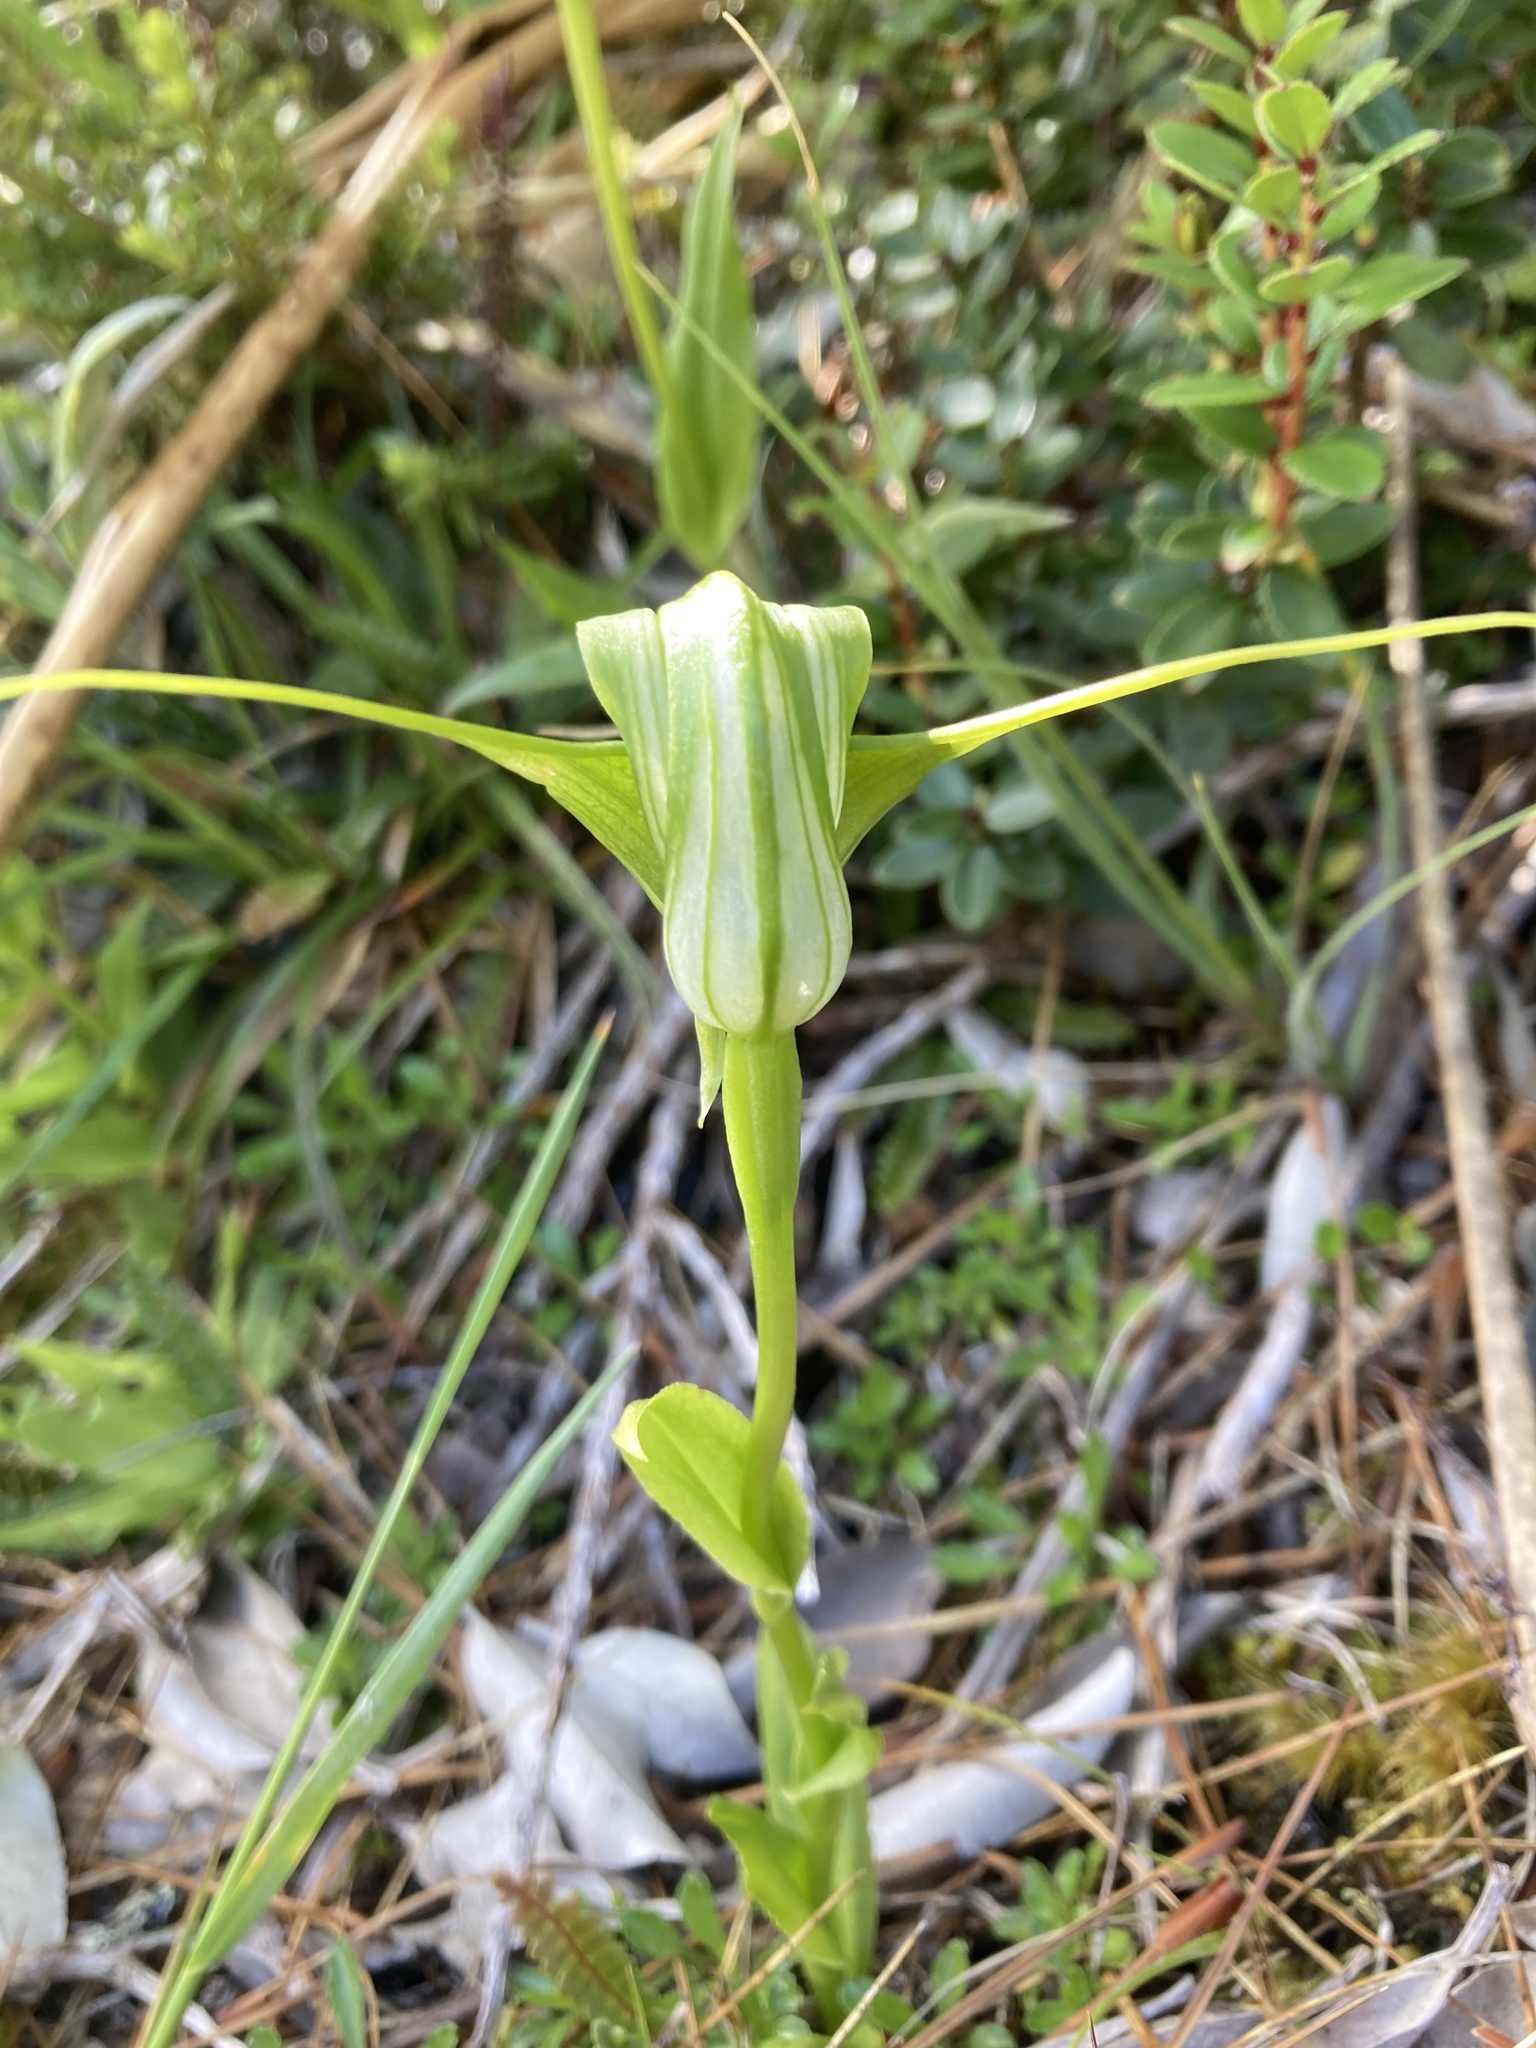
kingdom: Plantae
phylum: Tracheophyta
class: Liliopsida
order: Asparagales
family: Orchidaceae
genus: Pterostylis
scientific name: Pterostylis oliveri
